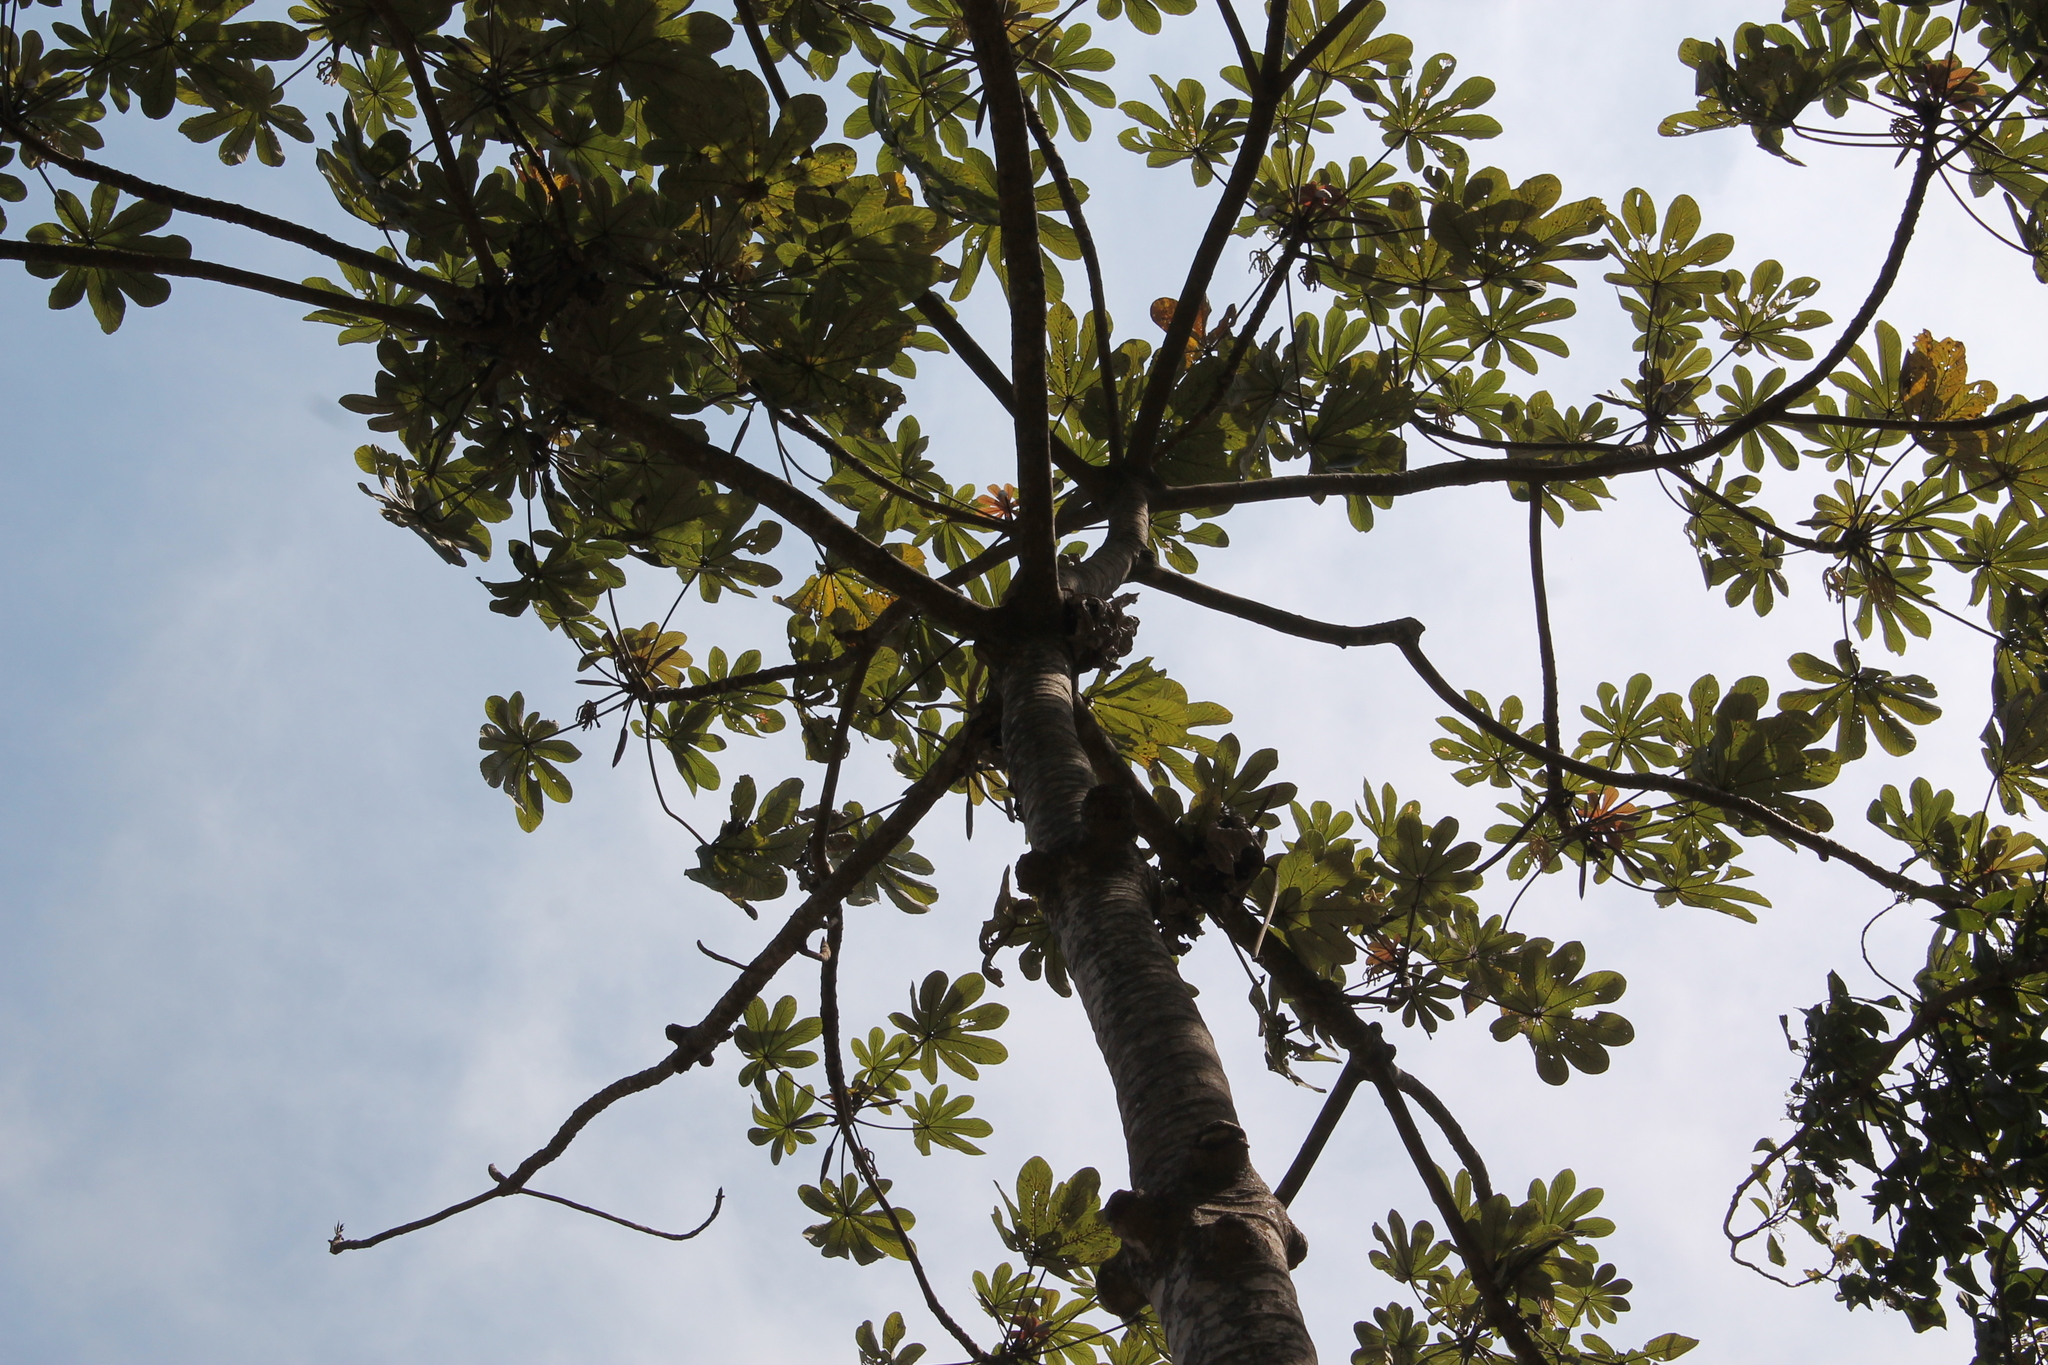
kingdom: Plantae
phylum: Tracheophyta
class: Magnoliopsida
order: Rosales
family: Urticaceae
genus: Cecropia
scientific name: Cecropia obtusifolia
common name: Trumpet tree
